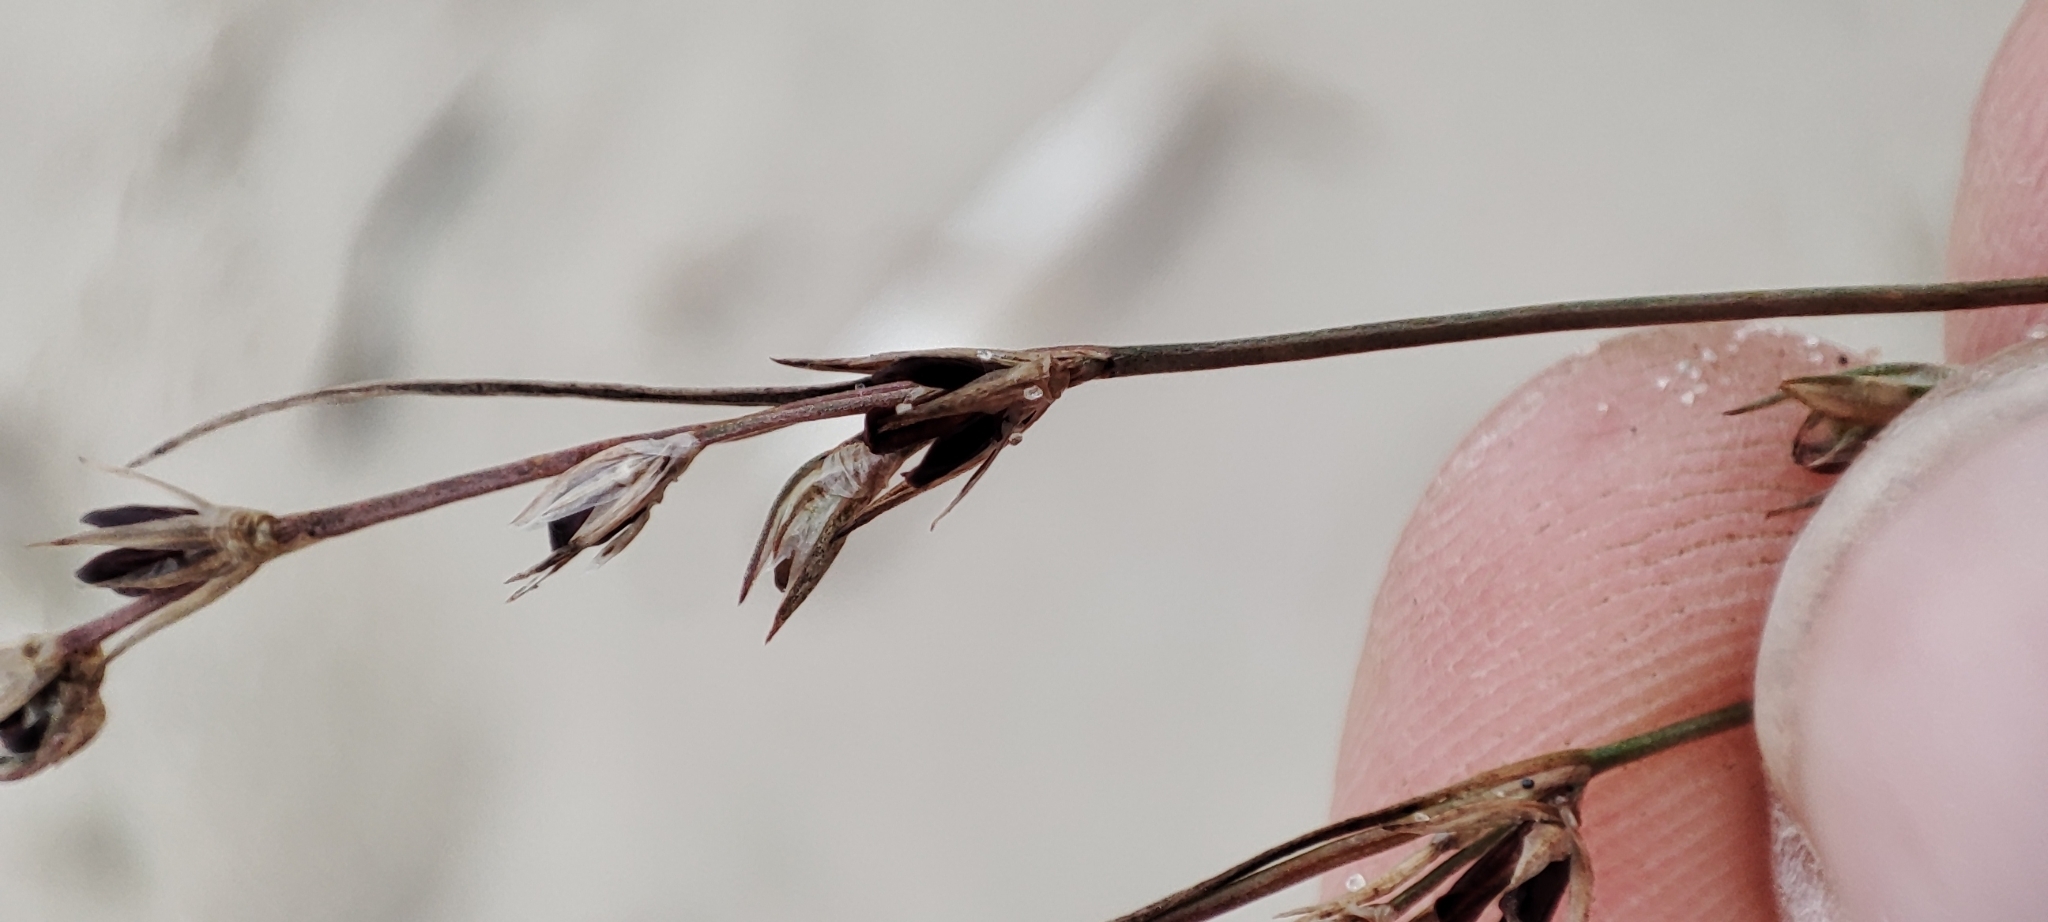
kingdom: Plantae
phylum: Tracheophyta
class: Liliopsida
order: Poales
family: Juncaceae
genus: Juncus
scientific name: Juncus bufonius
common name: Toad rush
